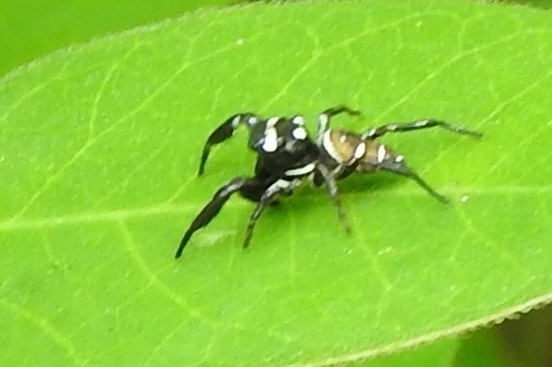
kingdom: Animalia
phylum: Arthropoda
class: Arachnida
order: Araneae
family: Salticidae
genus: Sassacus
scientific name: Sassacus
